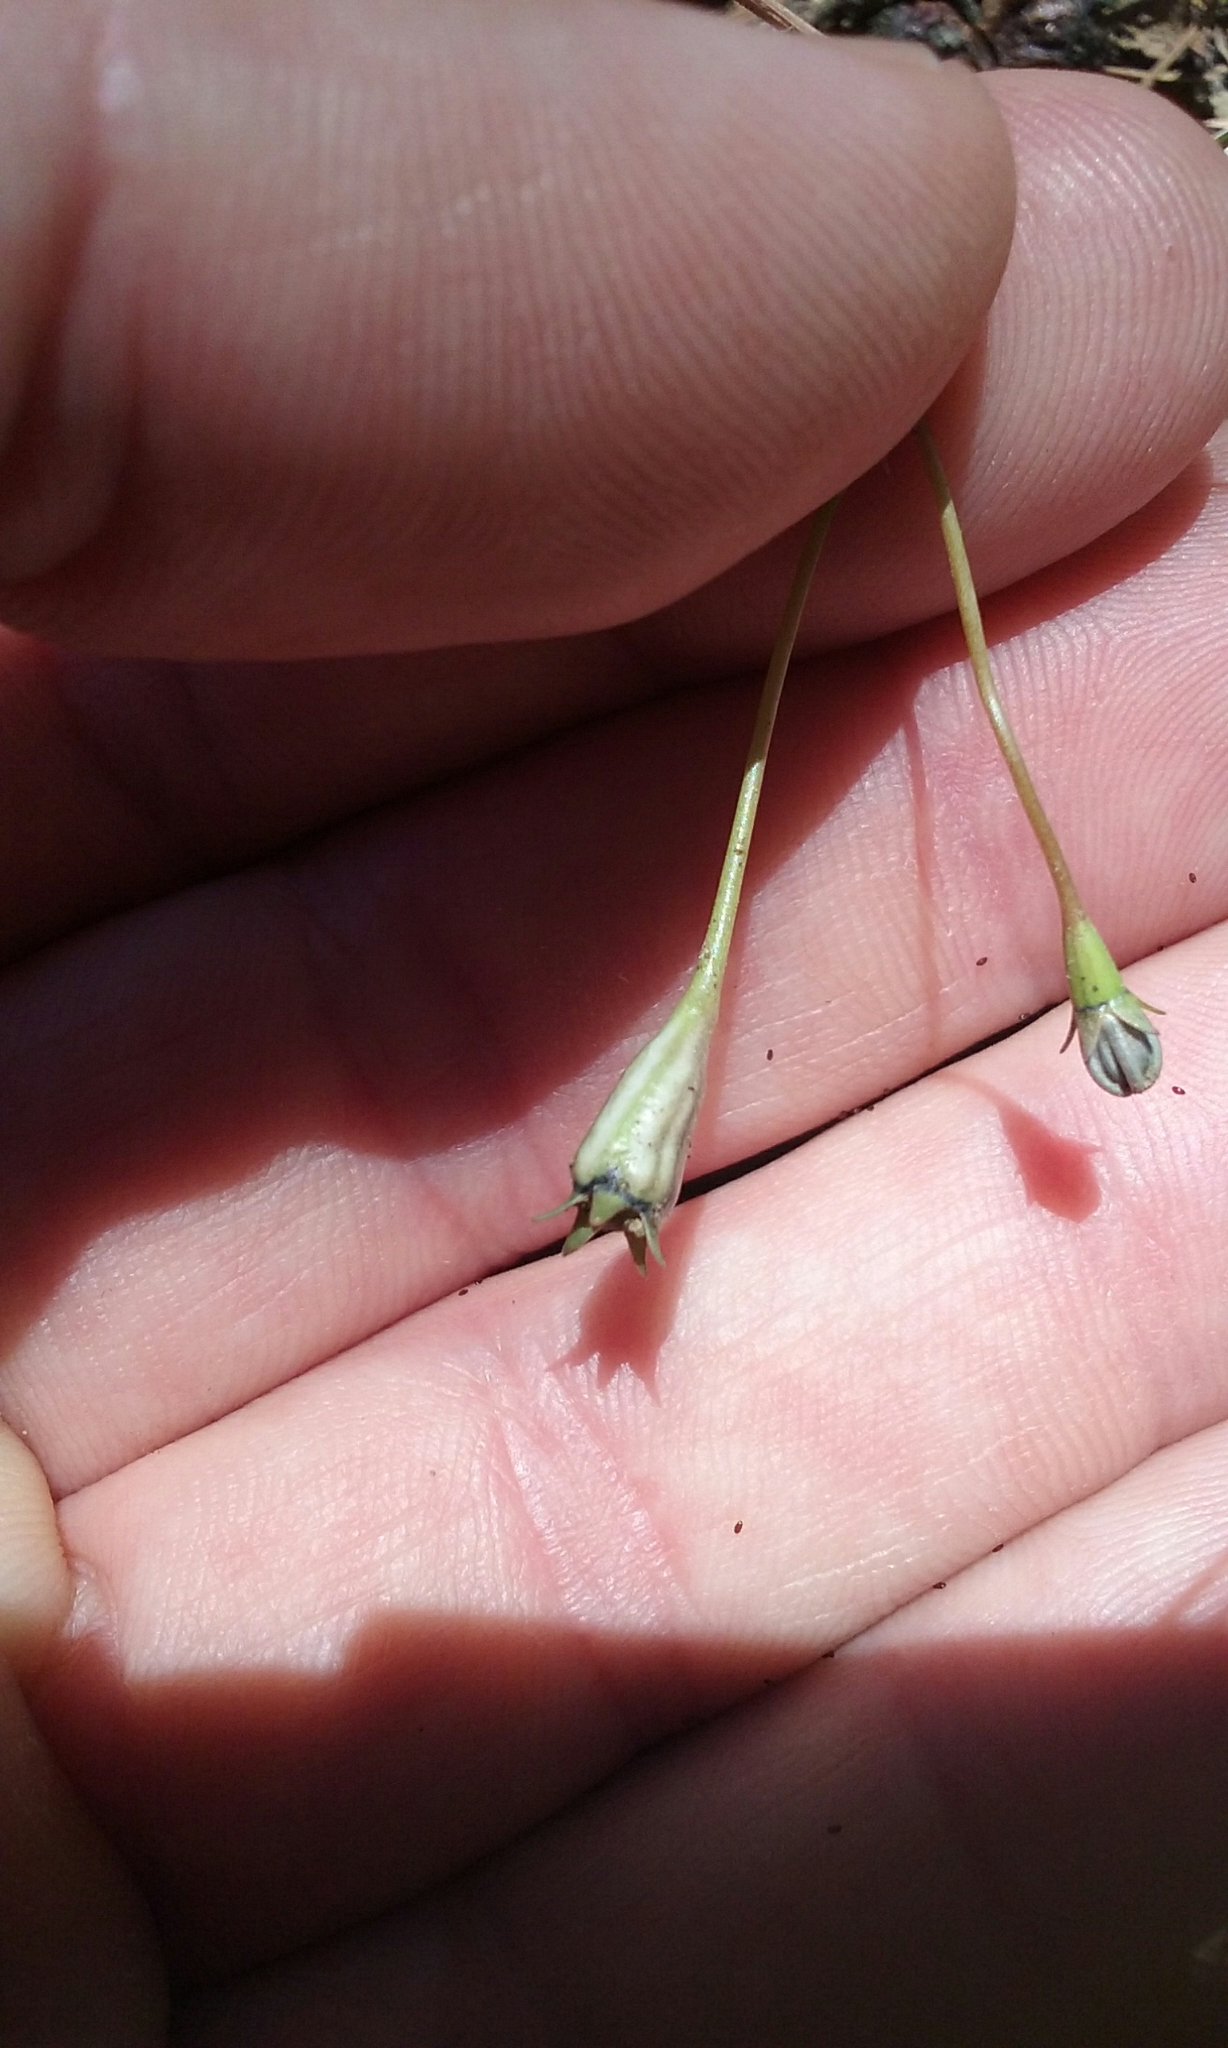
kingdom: Plantae
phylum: Tracheophyta
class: Magnoliopsida
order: Asterales
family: Campanulaceae
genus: Wahlenbergia
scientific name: Wahlenbergia marginata
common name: Southern rockbell
